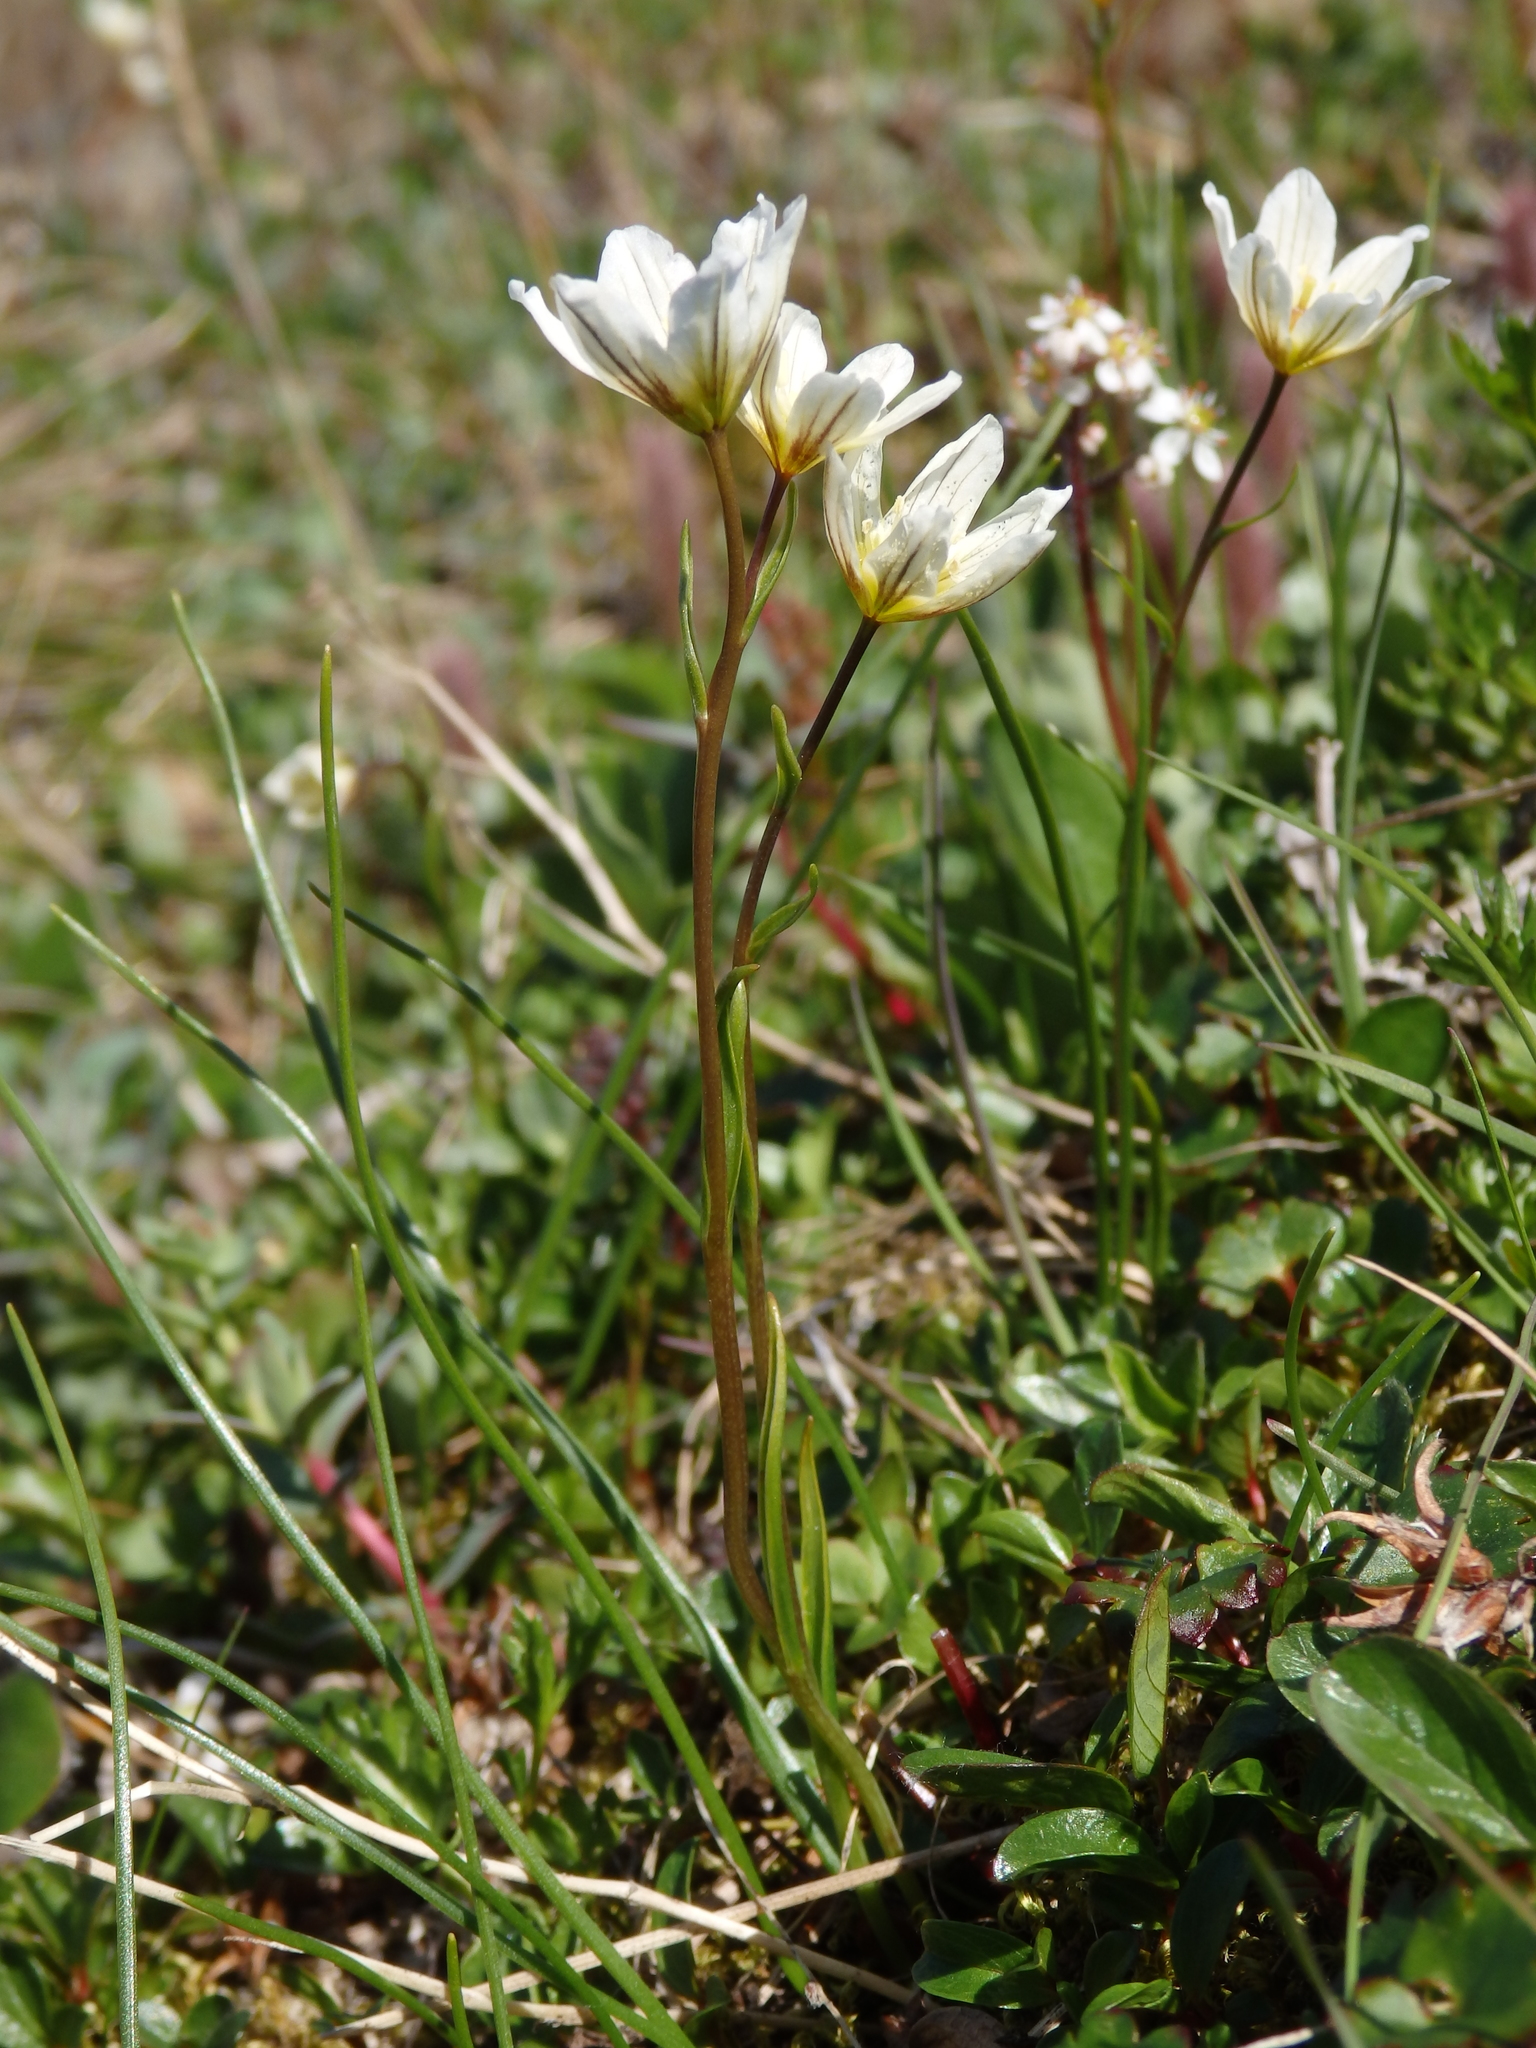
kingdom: Plantae
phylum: Tracheophyta
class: Liliopsida
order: Liliales
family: Liliaceae
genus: Gagea
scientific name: Gagea serotina
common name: Snowdon lily
